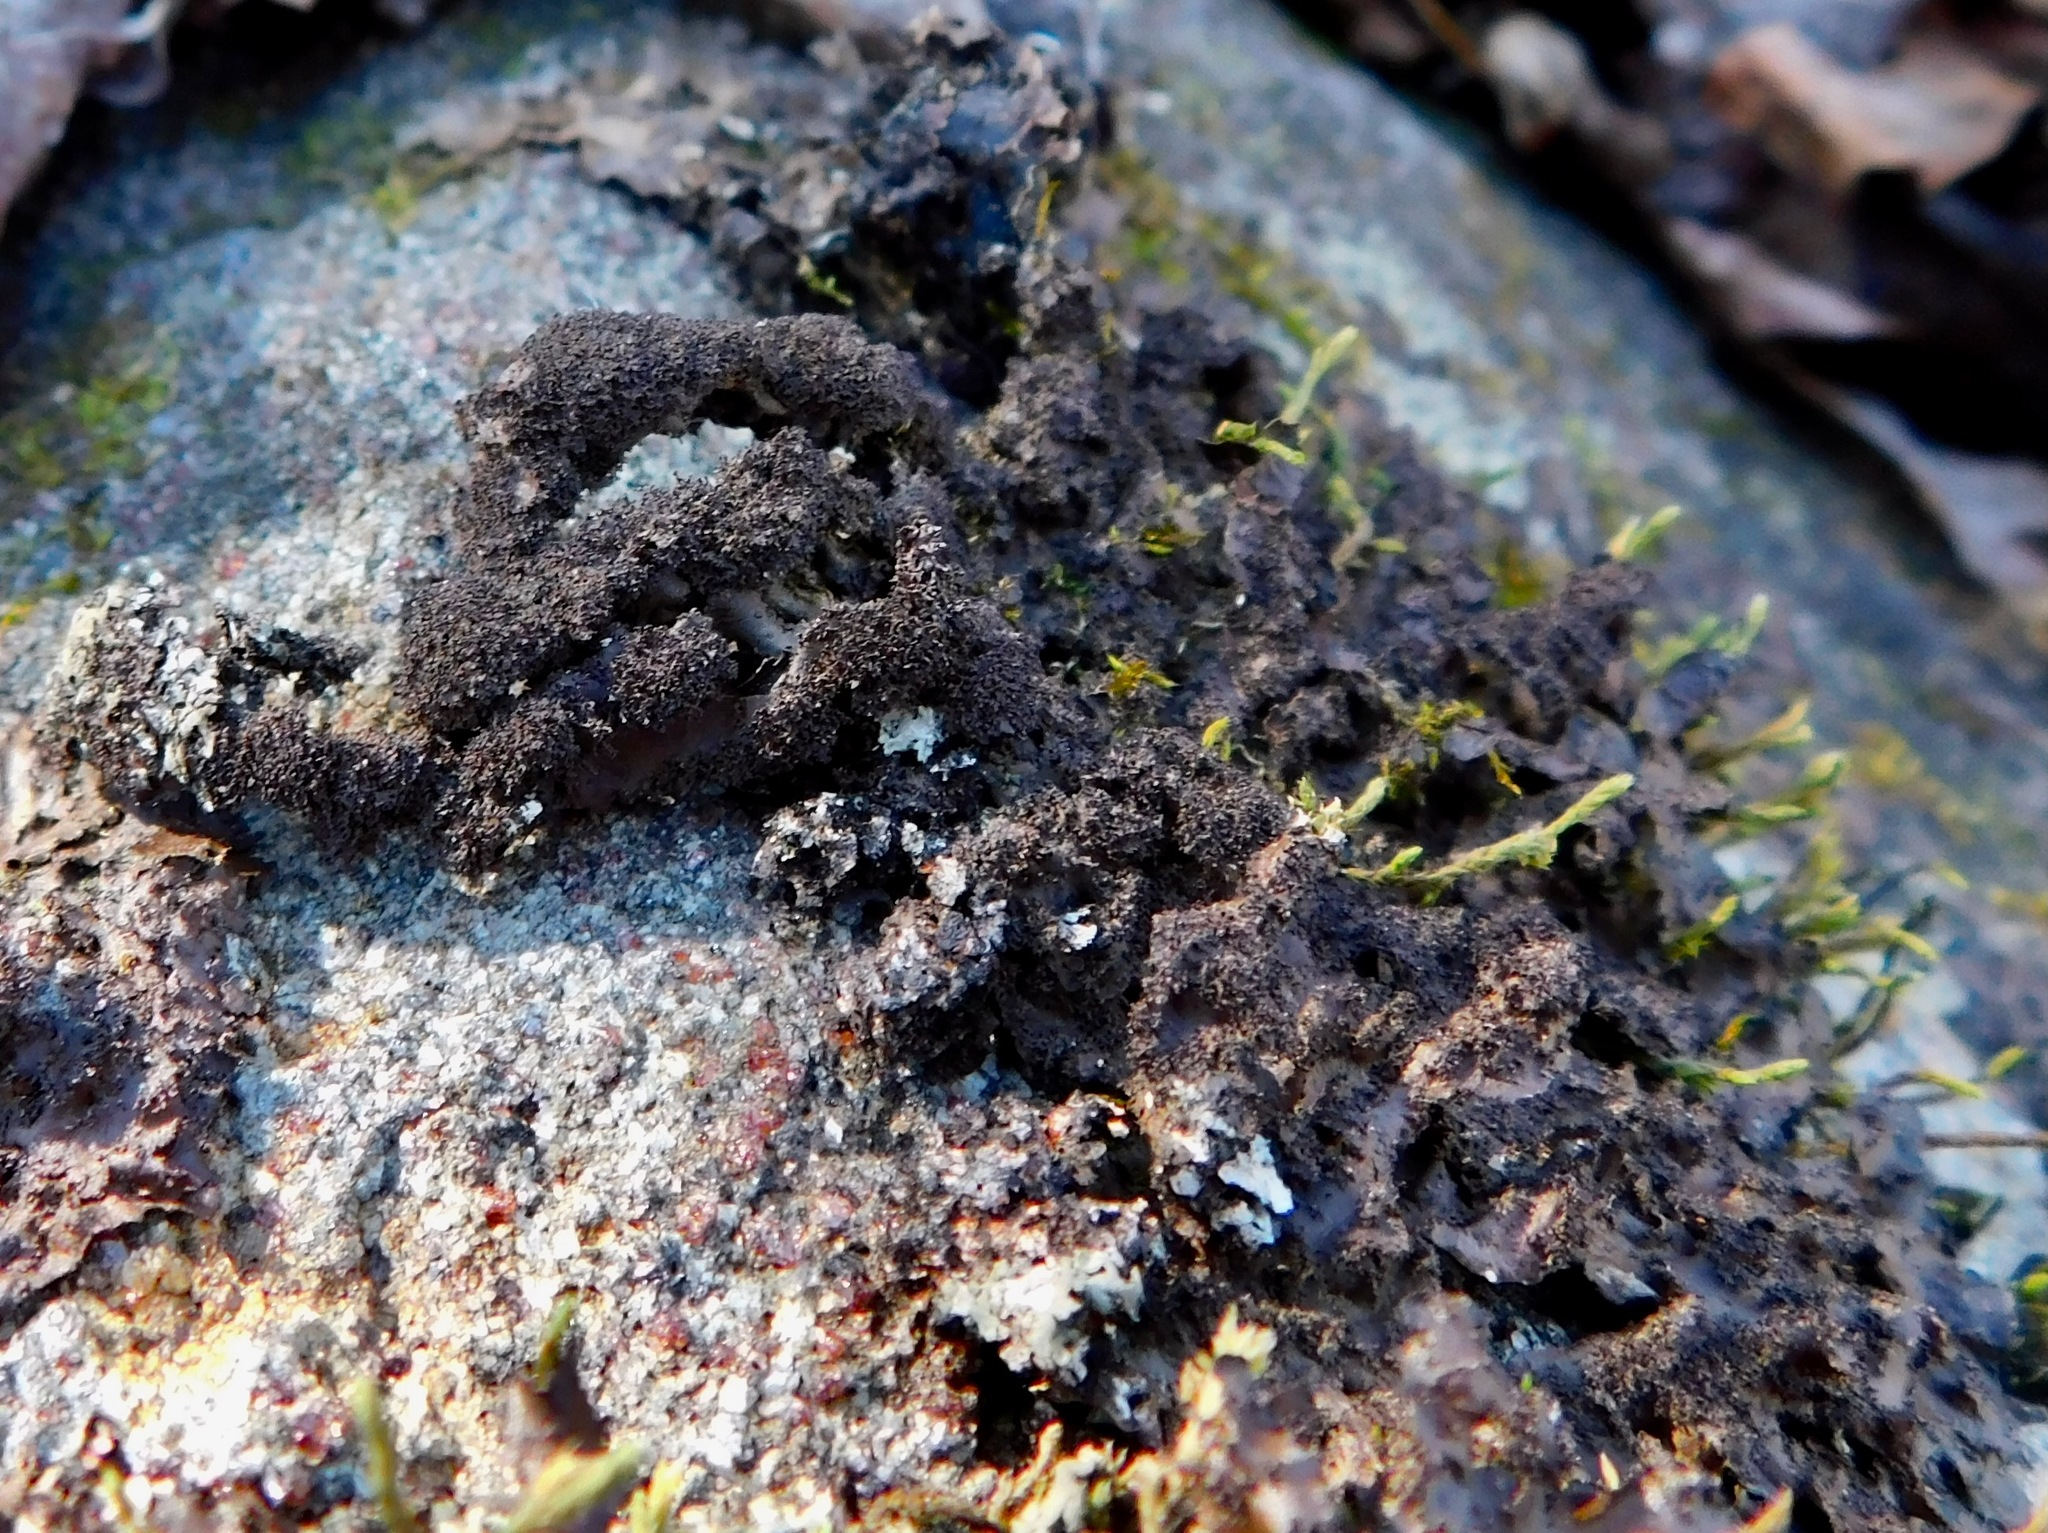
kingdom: Fungi
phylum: Ascomycota
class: Lecanoromycetes
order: Peltigerales
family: Nephromataceae
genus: Nephroma
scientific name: Nephroma helveticum
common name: Fringed kidney lichen
